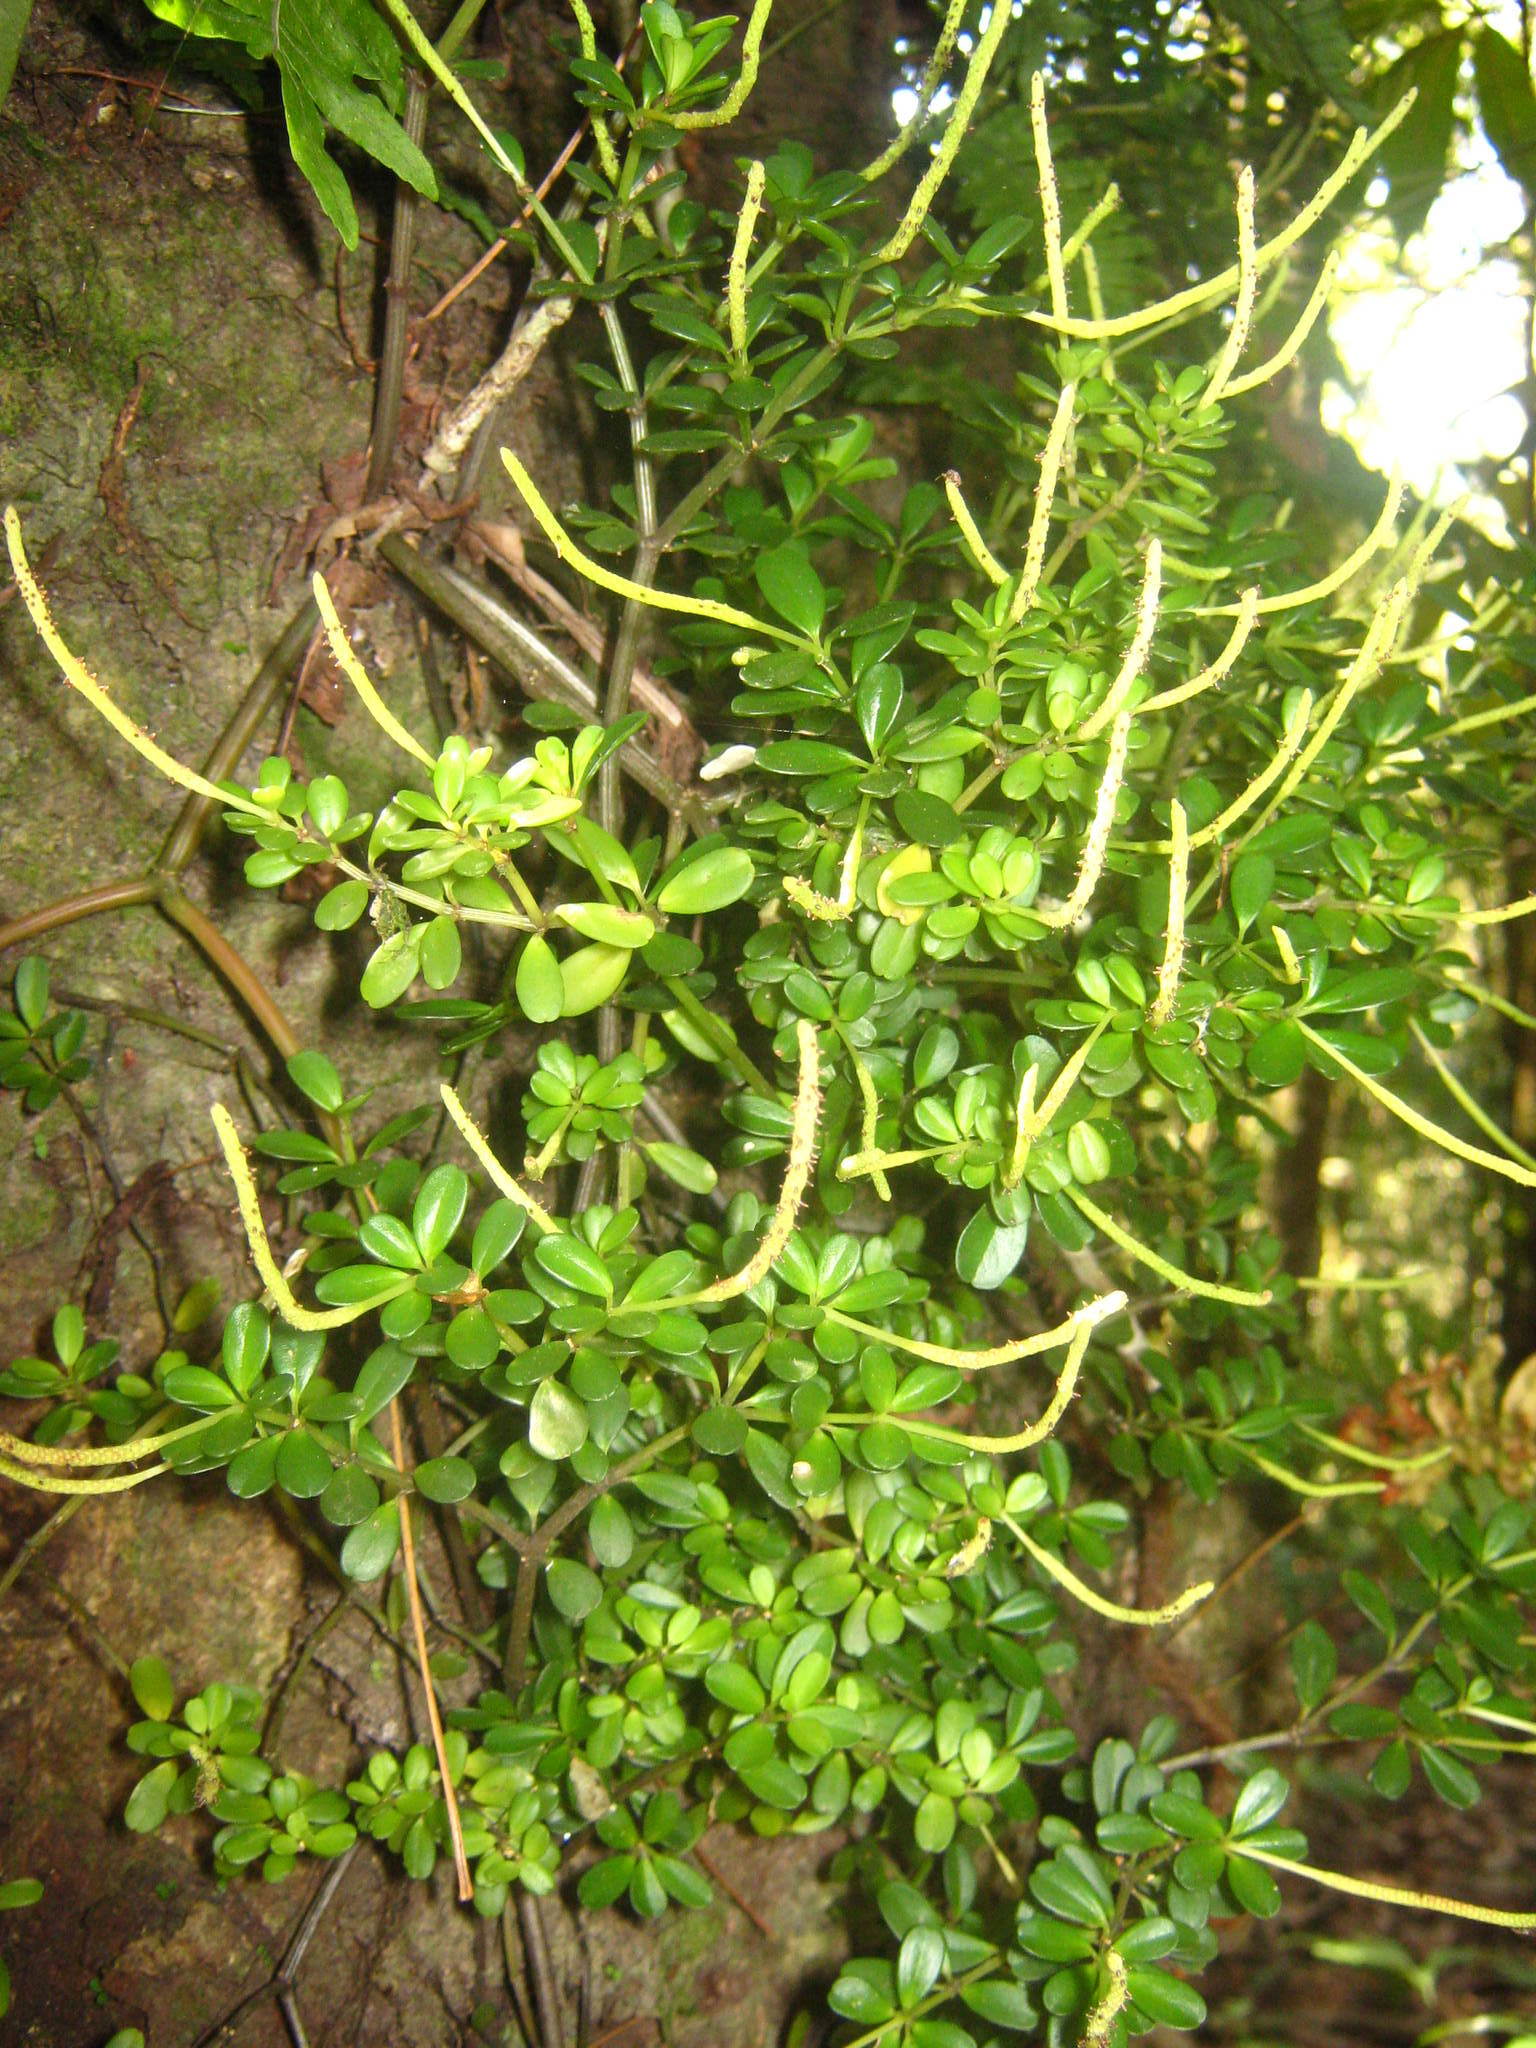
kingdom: Plantae
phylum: Tracheophyta
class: Magnoliopsida
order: Piperales
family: Piperaceae
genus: Peperomia
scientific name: Peperomia quadrifolia
